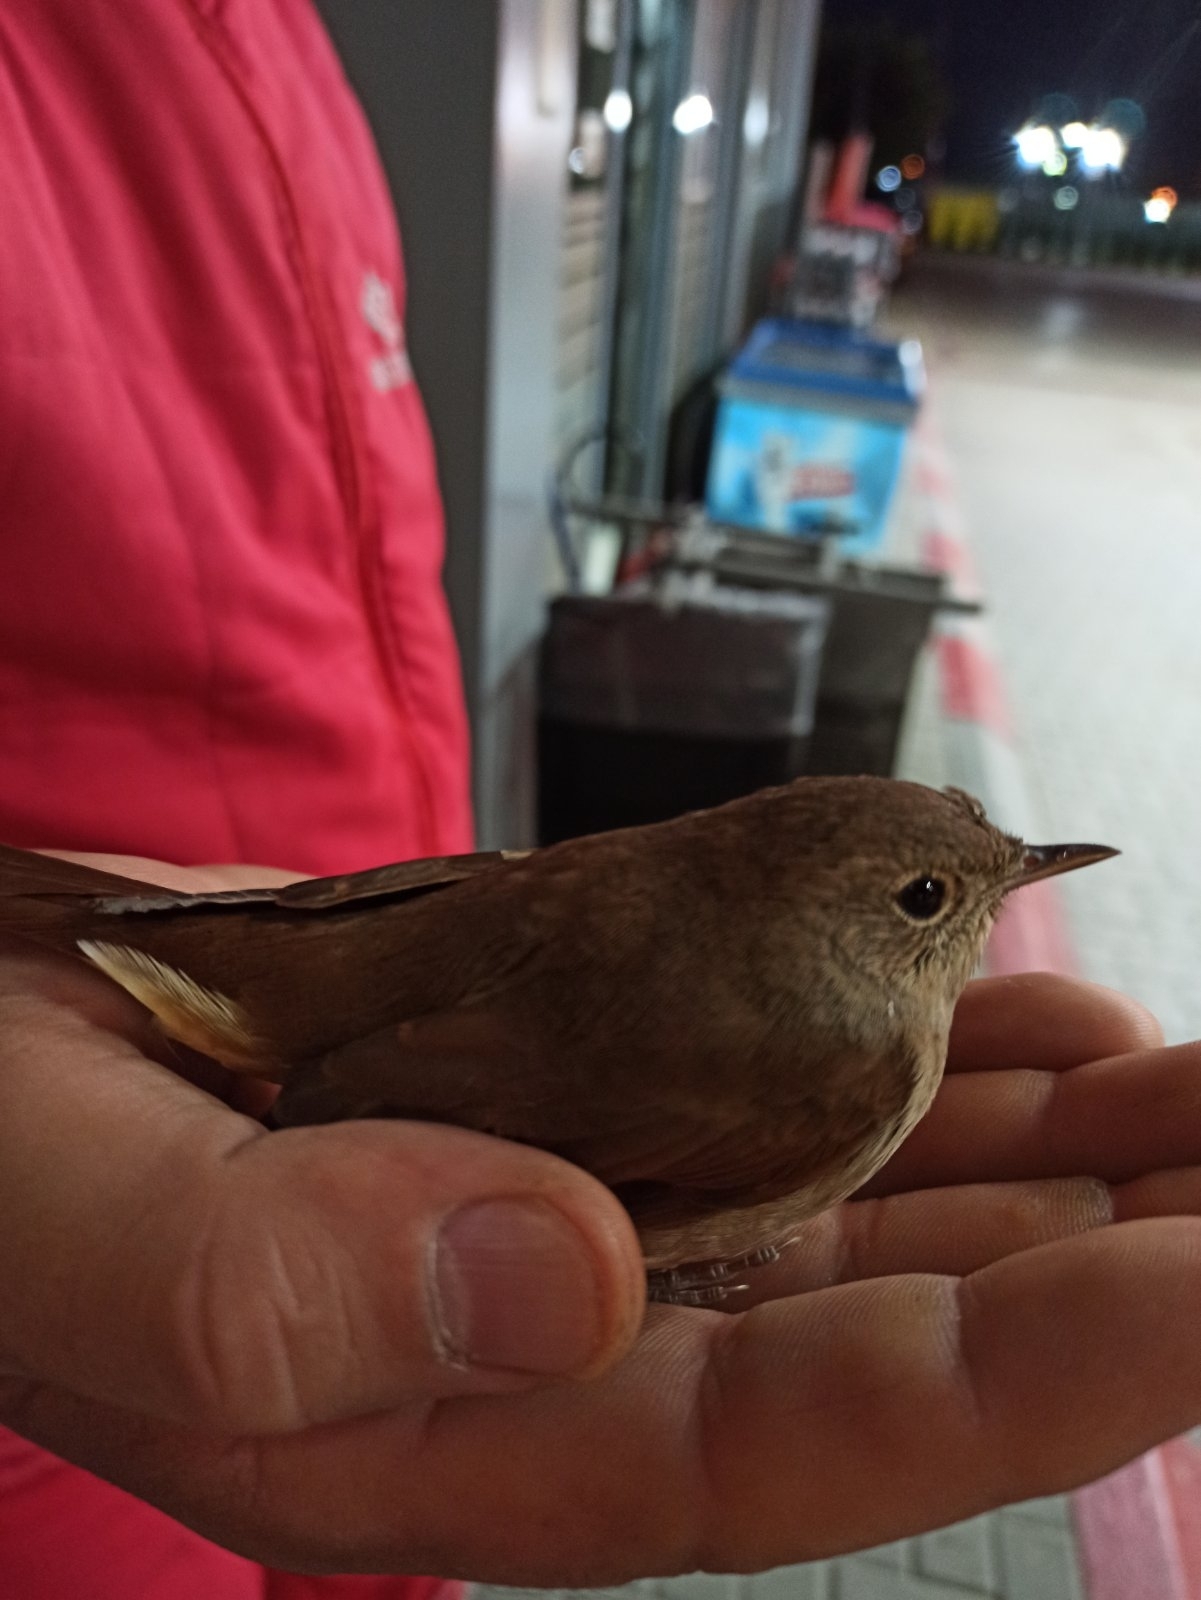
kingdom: Animalia
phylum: Chordata
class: Aves
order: Passeriformes
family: Muscicapidae
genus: Luscinia
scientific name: Luscinia megarhynchos
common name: Common nightingale
